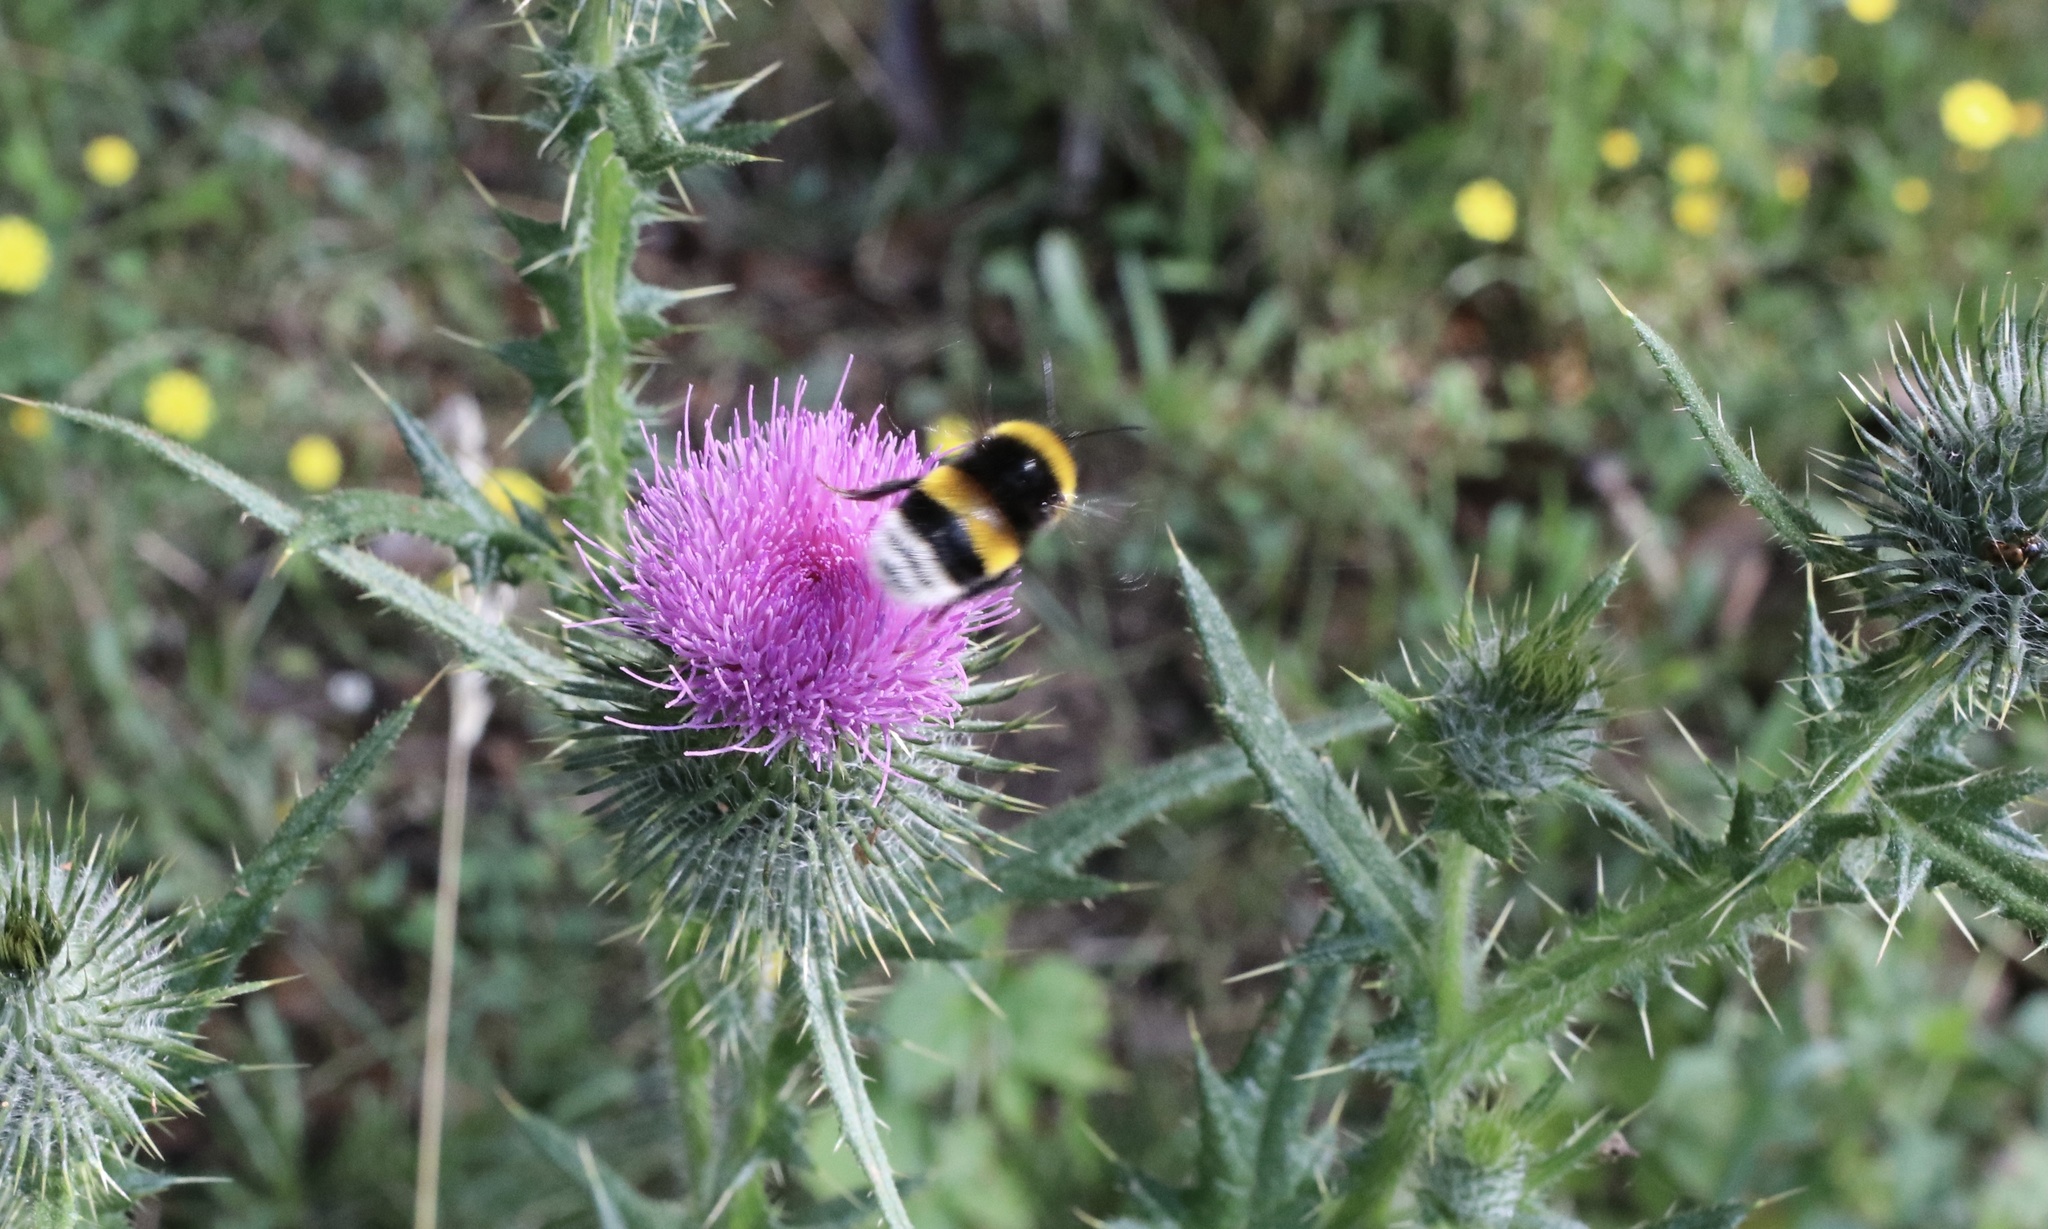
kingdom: Animalia
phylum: Arthropoda
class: Insecta
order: Hymenoptera
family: Apidae
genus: Bombus
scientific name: Bombus terrestris
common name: Buff-tailed bumblebee
